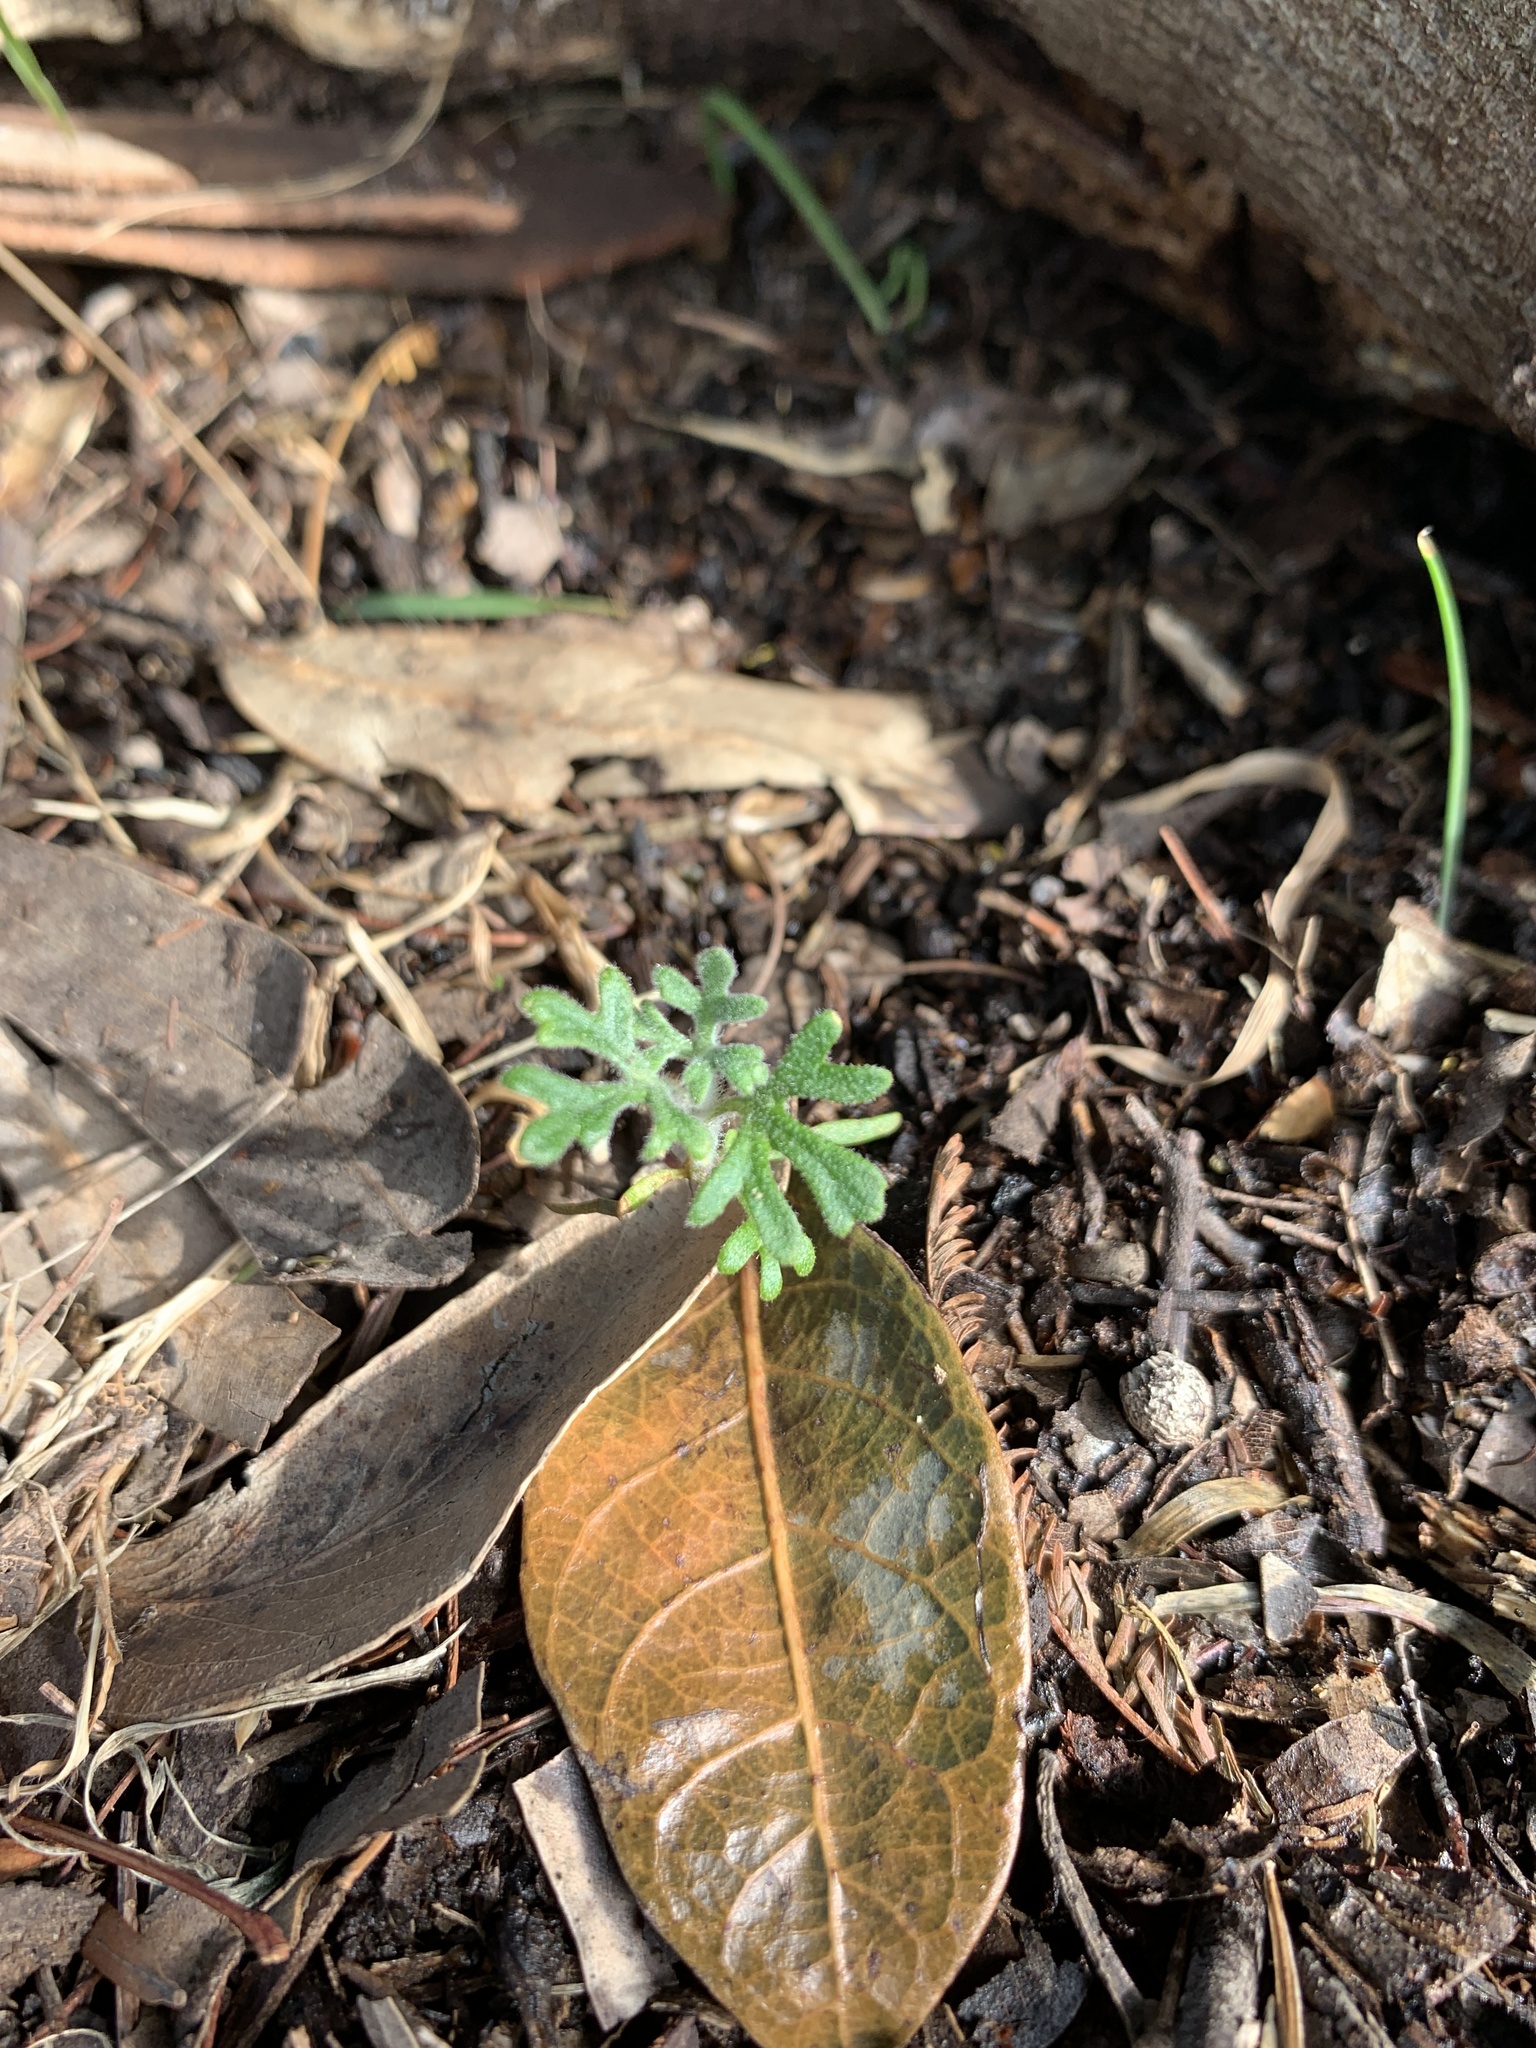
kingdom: Plantae
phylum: Tracheophyta
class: Magnoliopsida
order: Apiales
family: Apiaceae
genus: Actinotus
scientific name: Actinotus helianthi
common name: Flannel-flower
